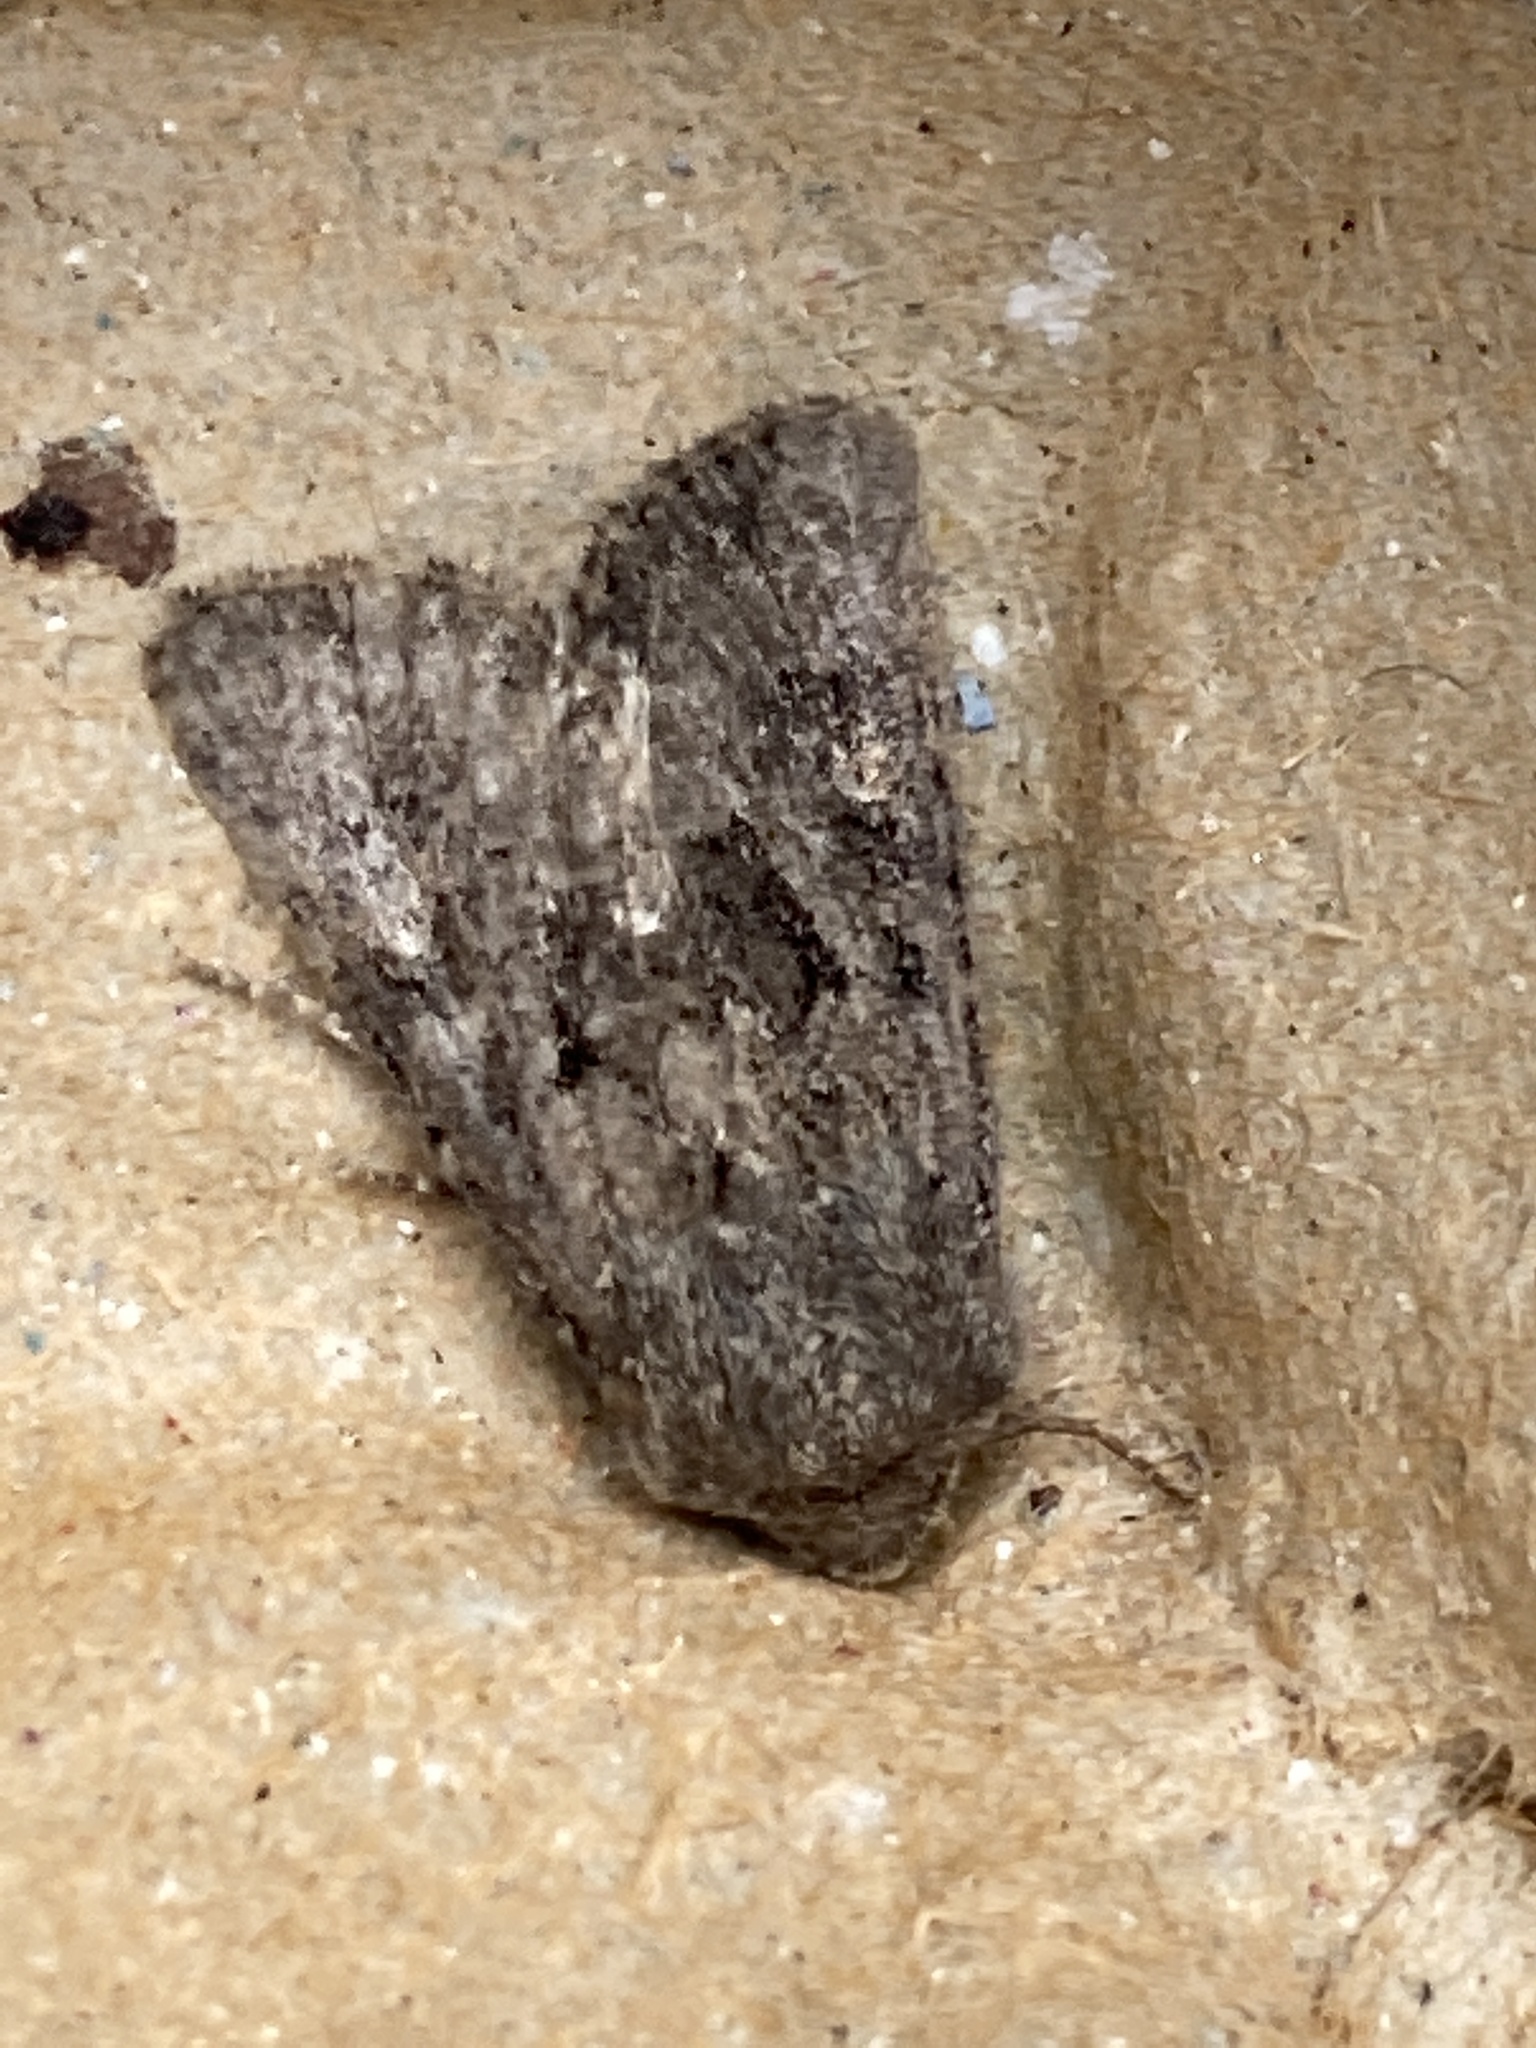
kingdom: Animalia
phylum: Arthropoda
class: Insecta
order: Lepidoptera
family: Noctuidae
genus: Luperina
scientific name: Luperina testacea
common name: Flounced rustic
